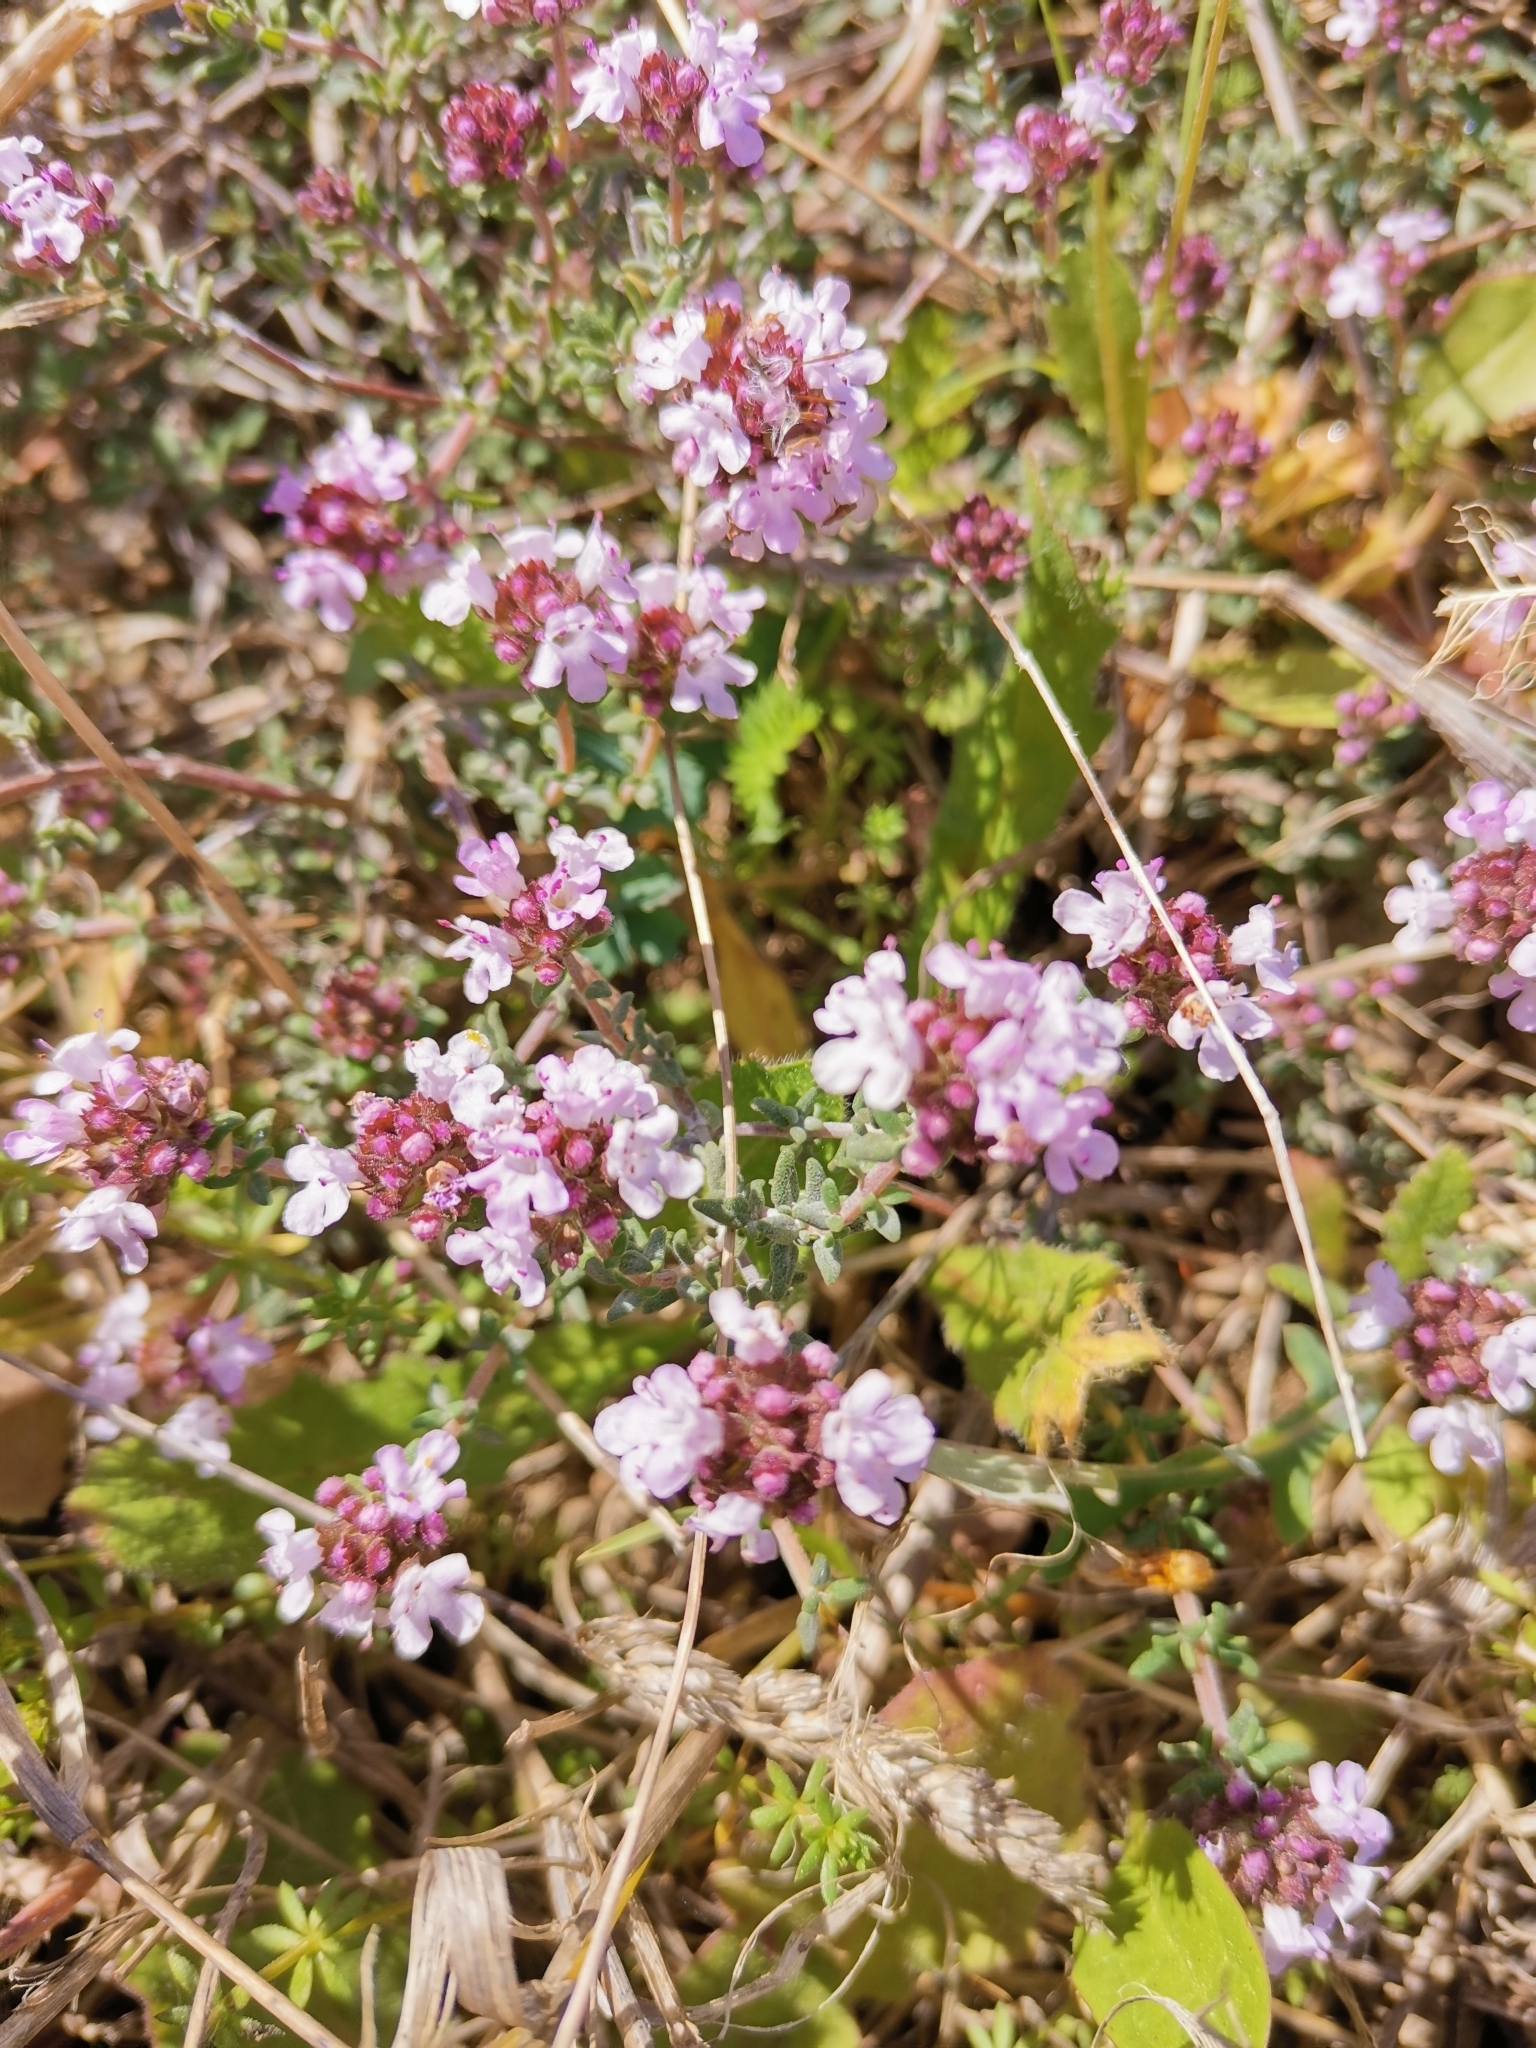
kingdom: Plantae
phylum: Tracheophyta
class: Magnoliopsida
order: Lamiales
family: Lamiaceae
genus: Thymus
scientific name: Thymus vulgaris
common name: Garden thyme
